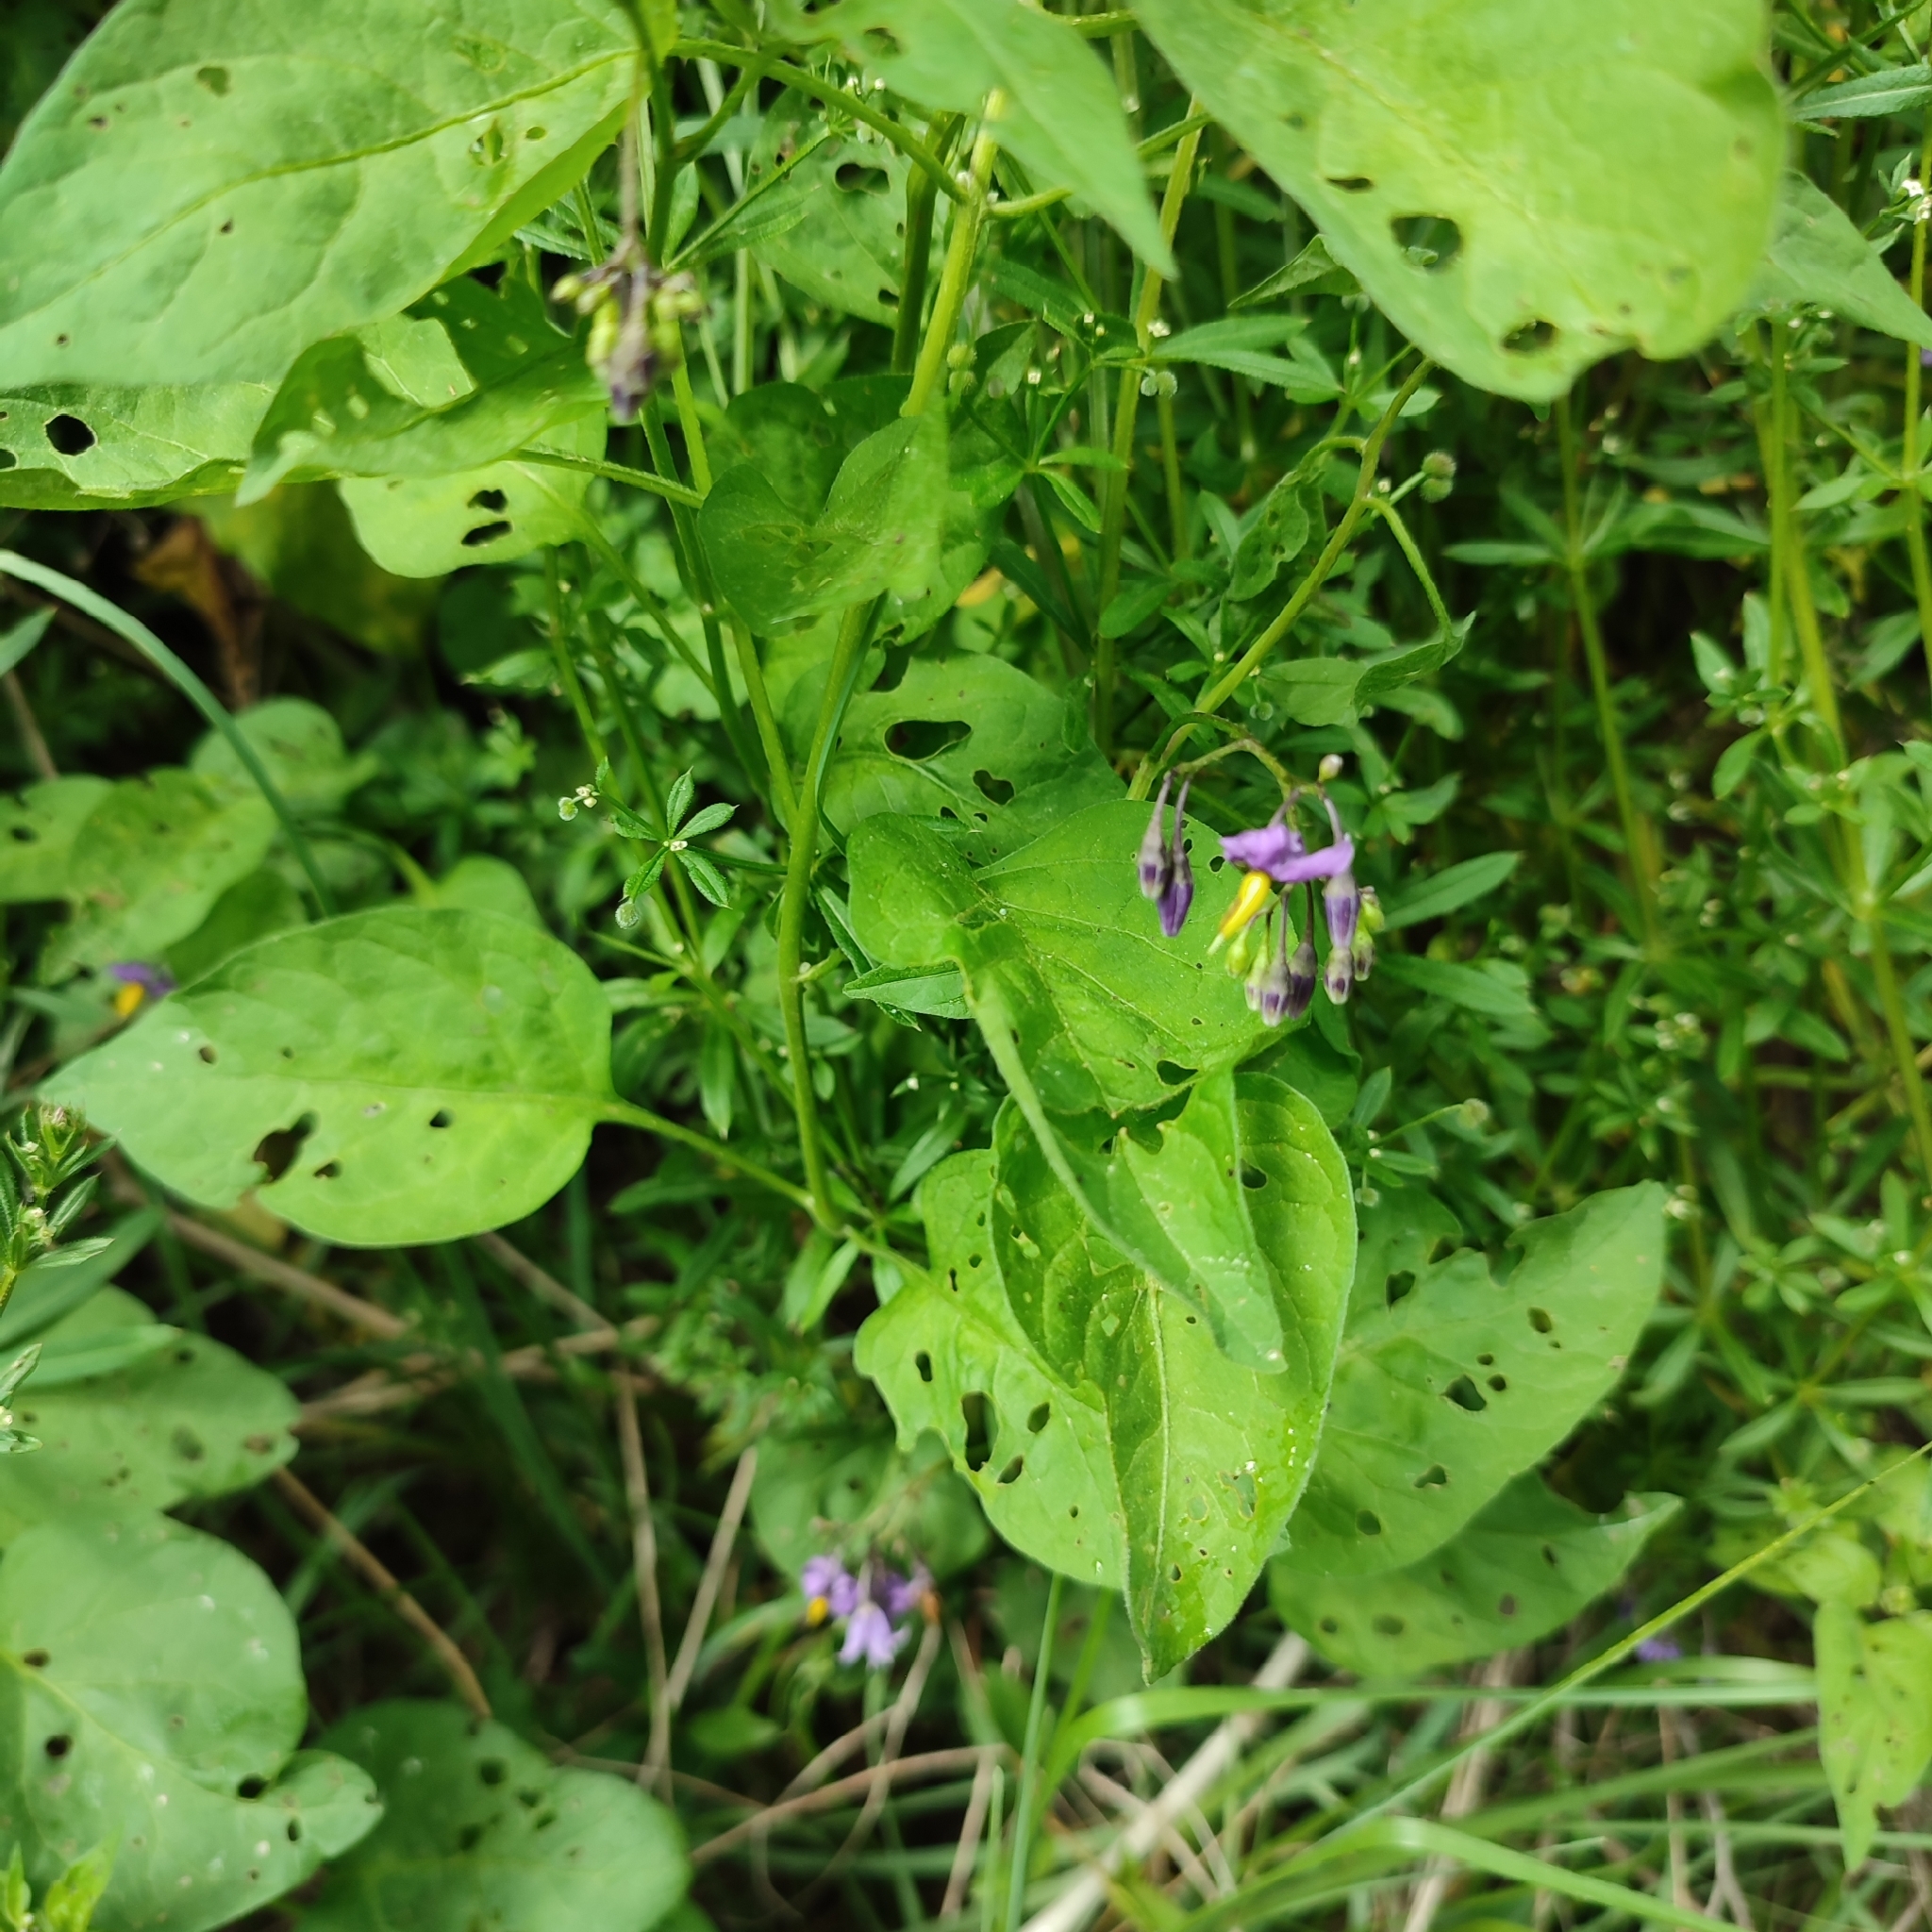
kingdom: Plantae
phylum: Tracheophyta
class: Magnoliopsida
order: Solanales
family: Solanaceae
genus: Solanum
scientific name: Solanum dulcamara
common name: Climbing nightshade
